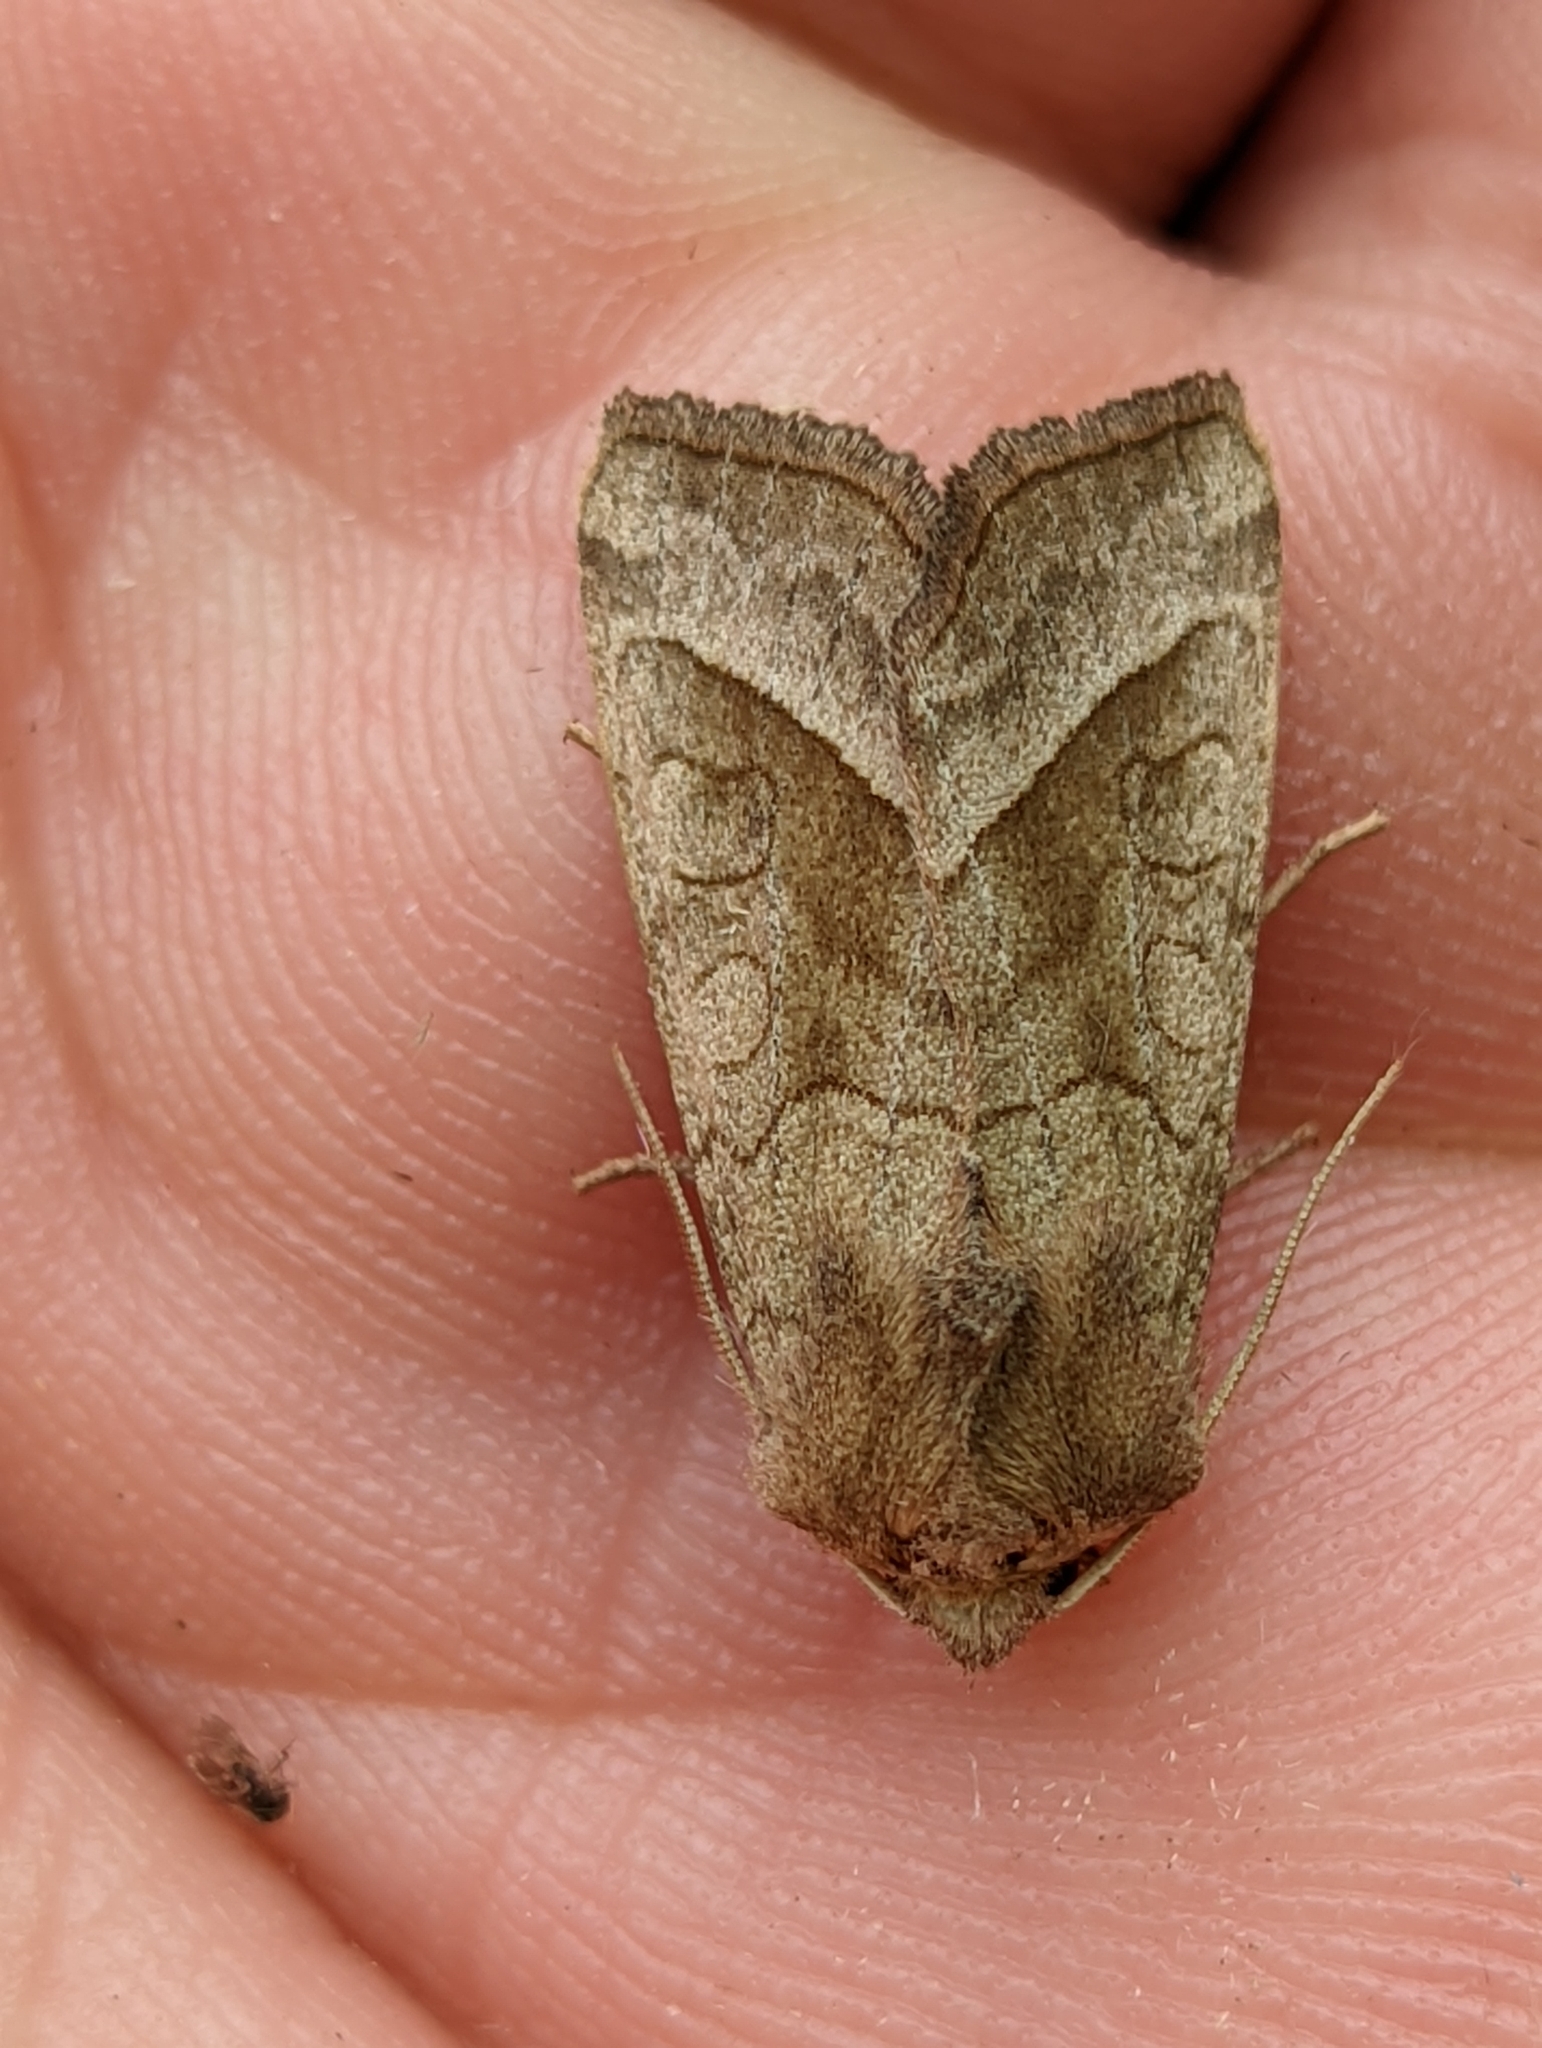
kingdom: Animalia
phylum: Arthropoda
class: Insecta
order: Lepidoptera
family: Noctuidae
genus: Hydraecia
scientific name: Hydraecia micacea
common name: Rosy rustic
